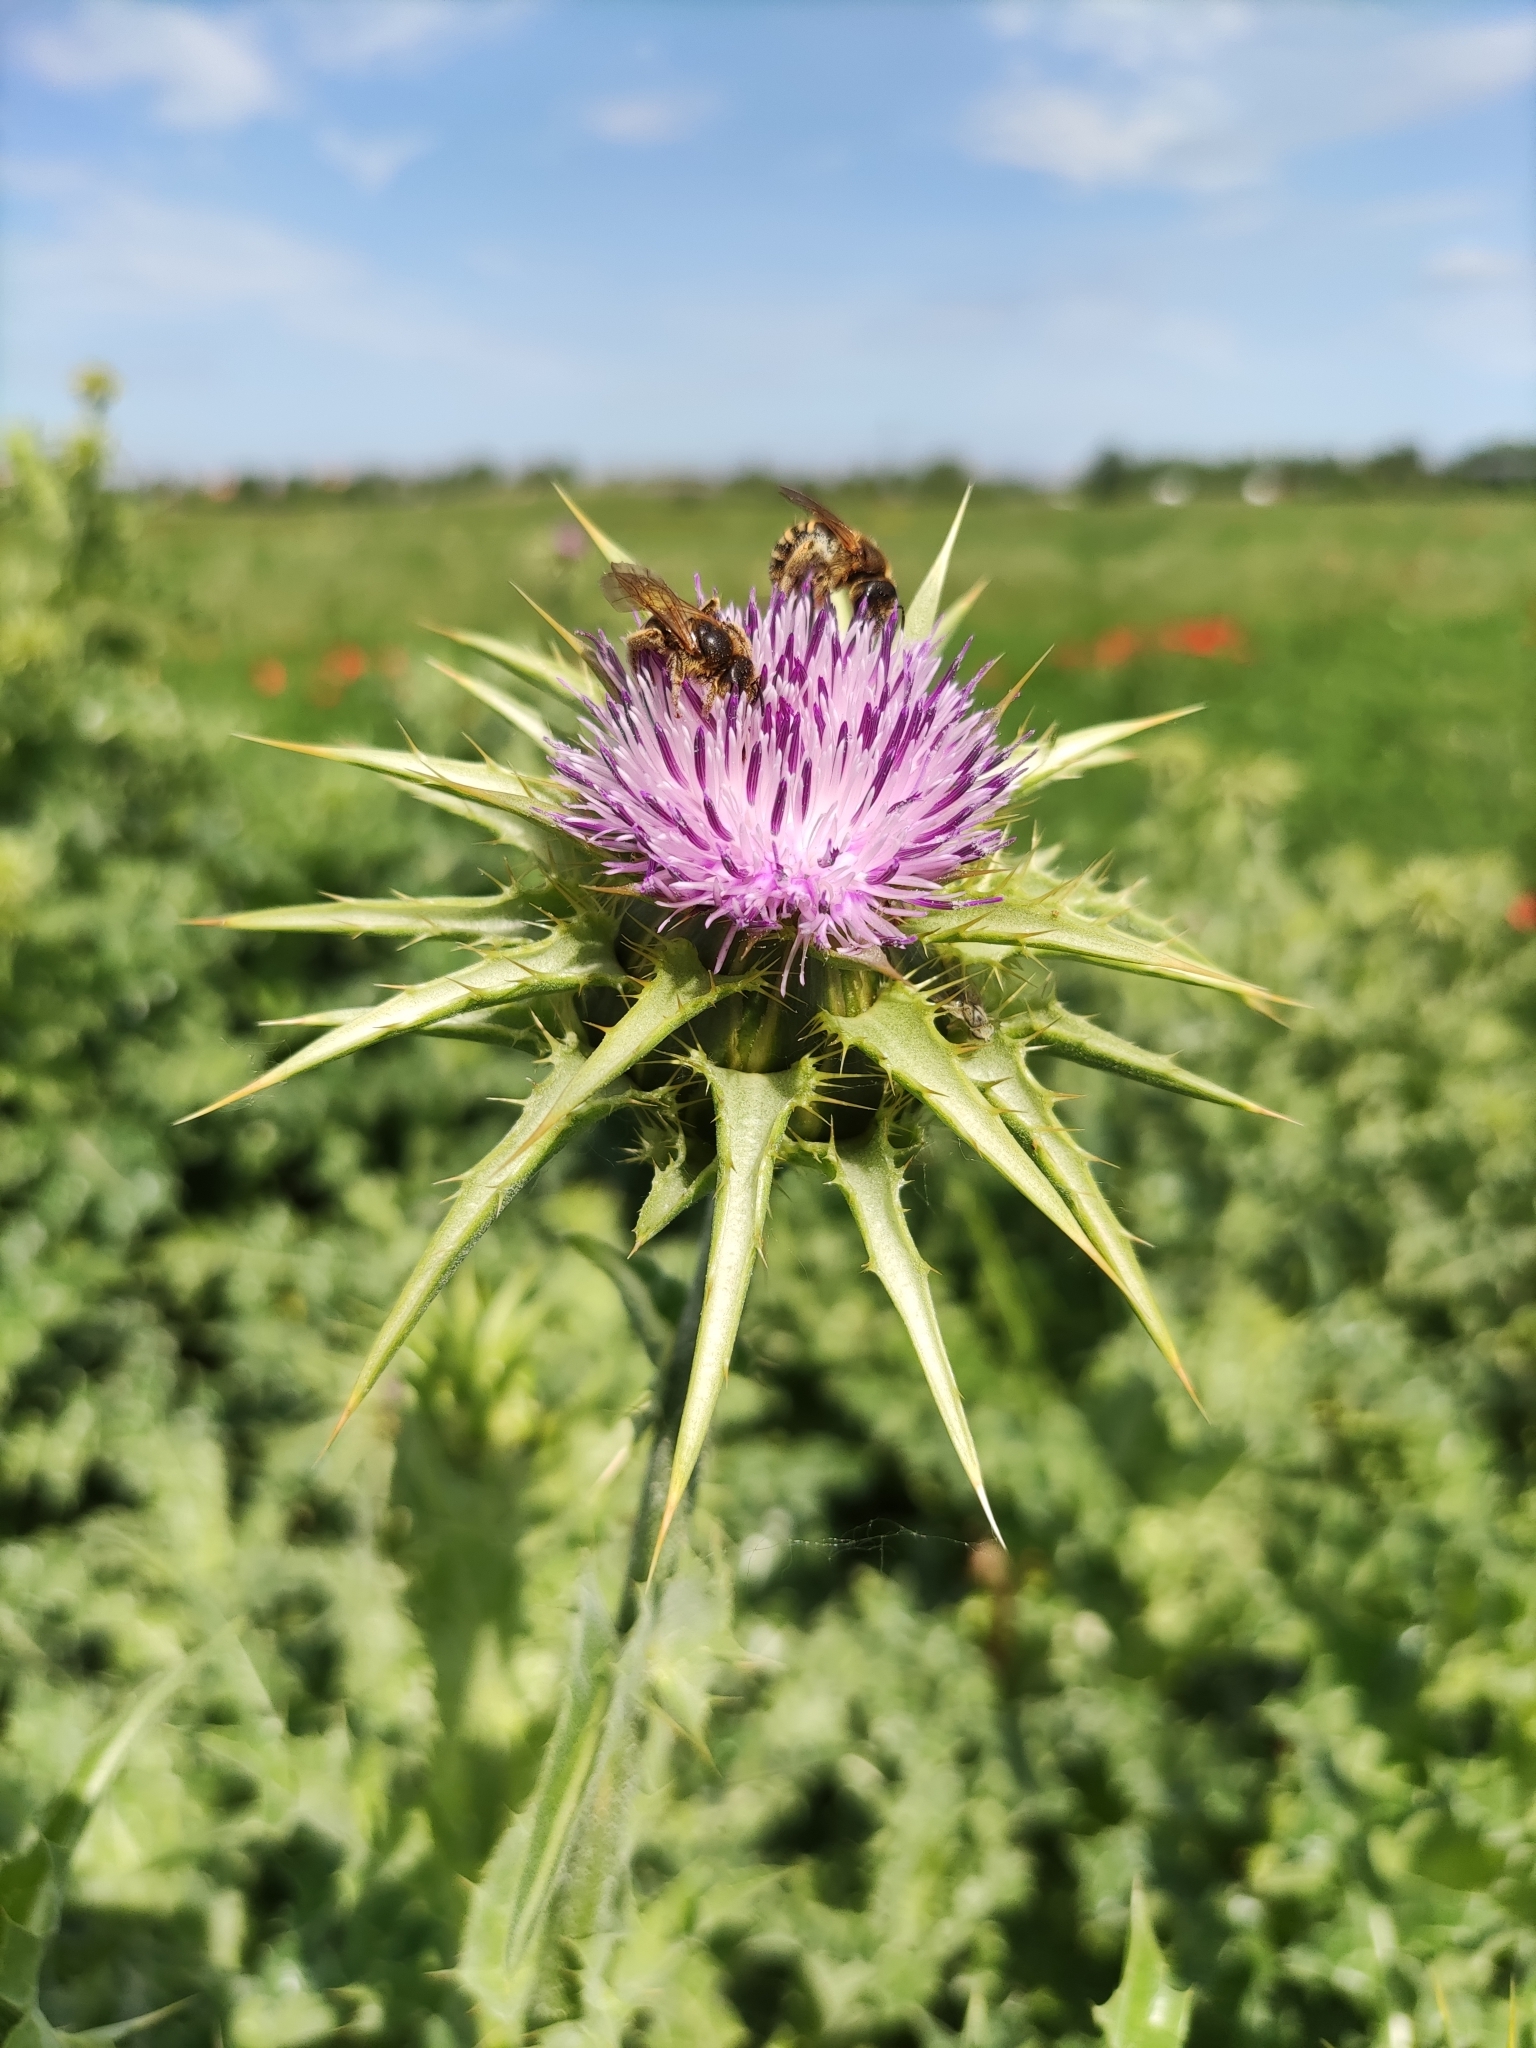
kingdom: Plantae
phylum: Tracheophyta
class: Magnoliopsida
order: Asterales
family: Asteraceae
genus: Silybum
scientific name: Silybum marianum
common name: Milk thistle
